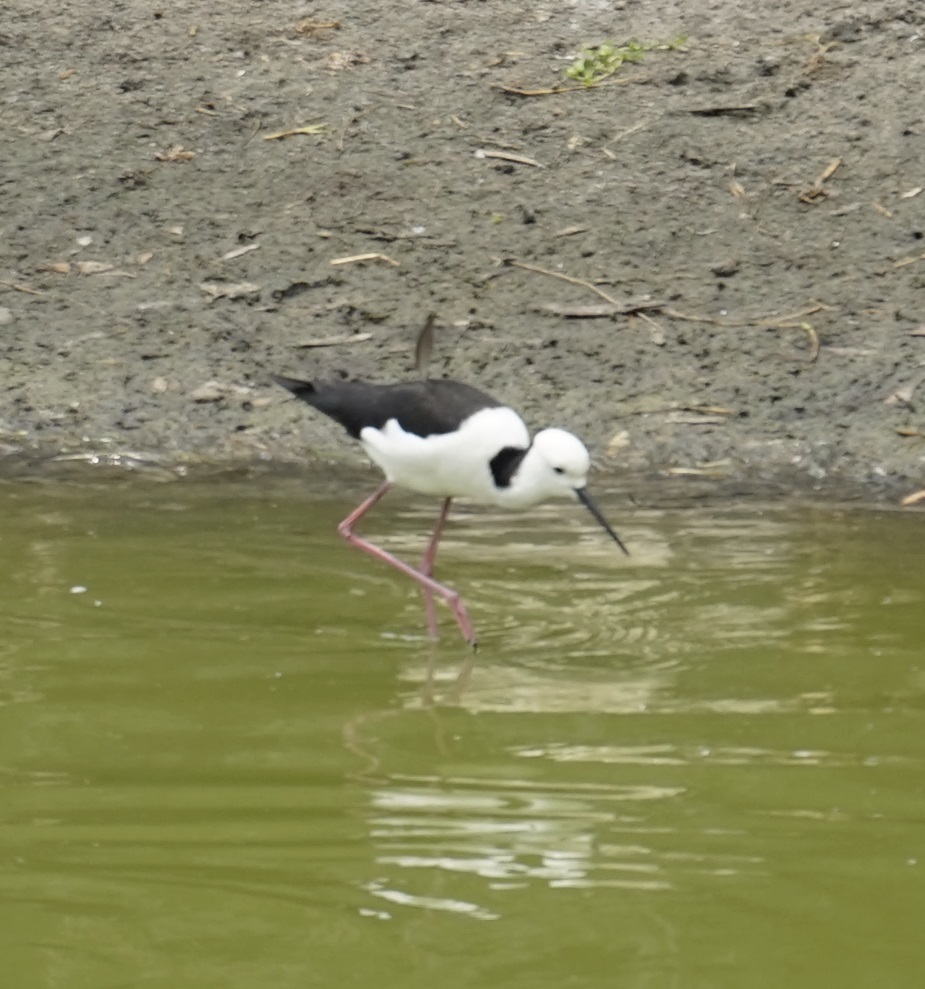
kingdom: Animalia
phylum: Chordata
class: Aves
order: Charadriiformes
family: Recurvirostridae
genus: Himantopus
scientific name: Himantopus leucocephalus
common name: White-headed stilt
